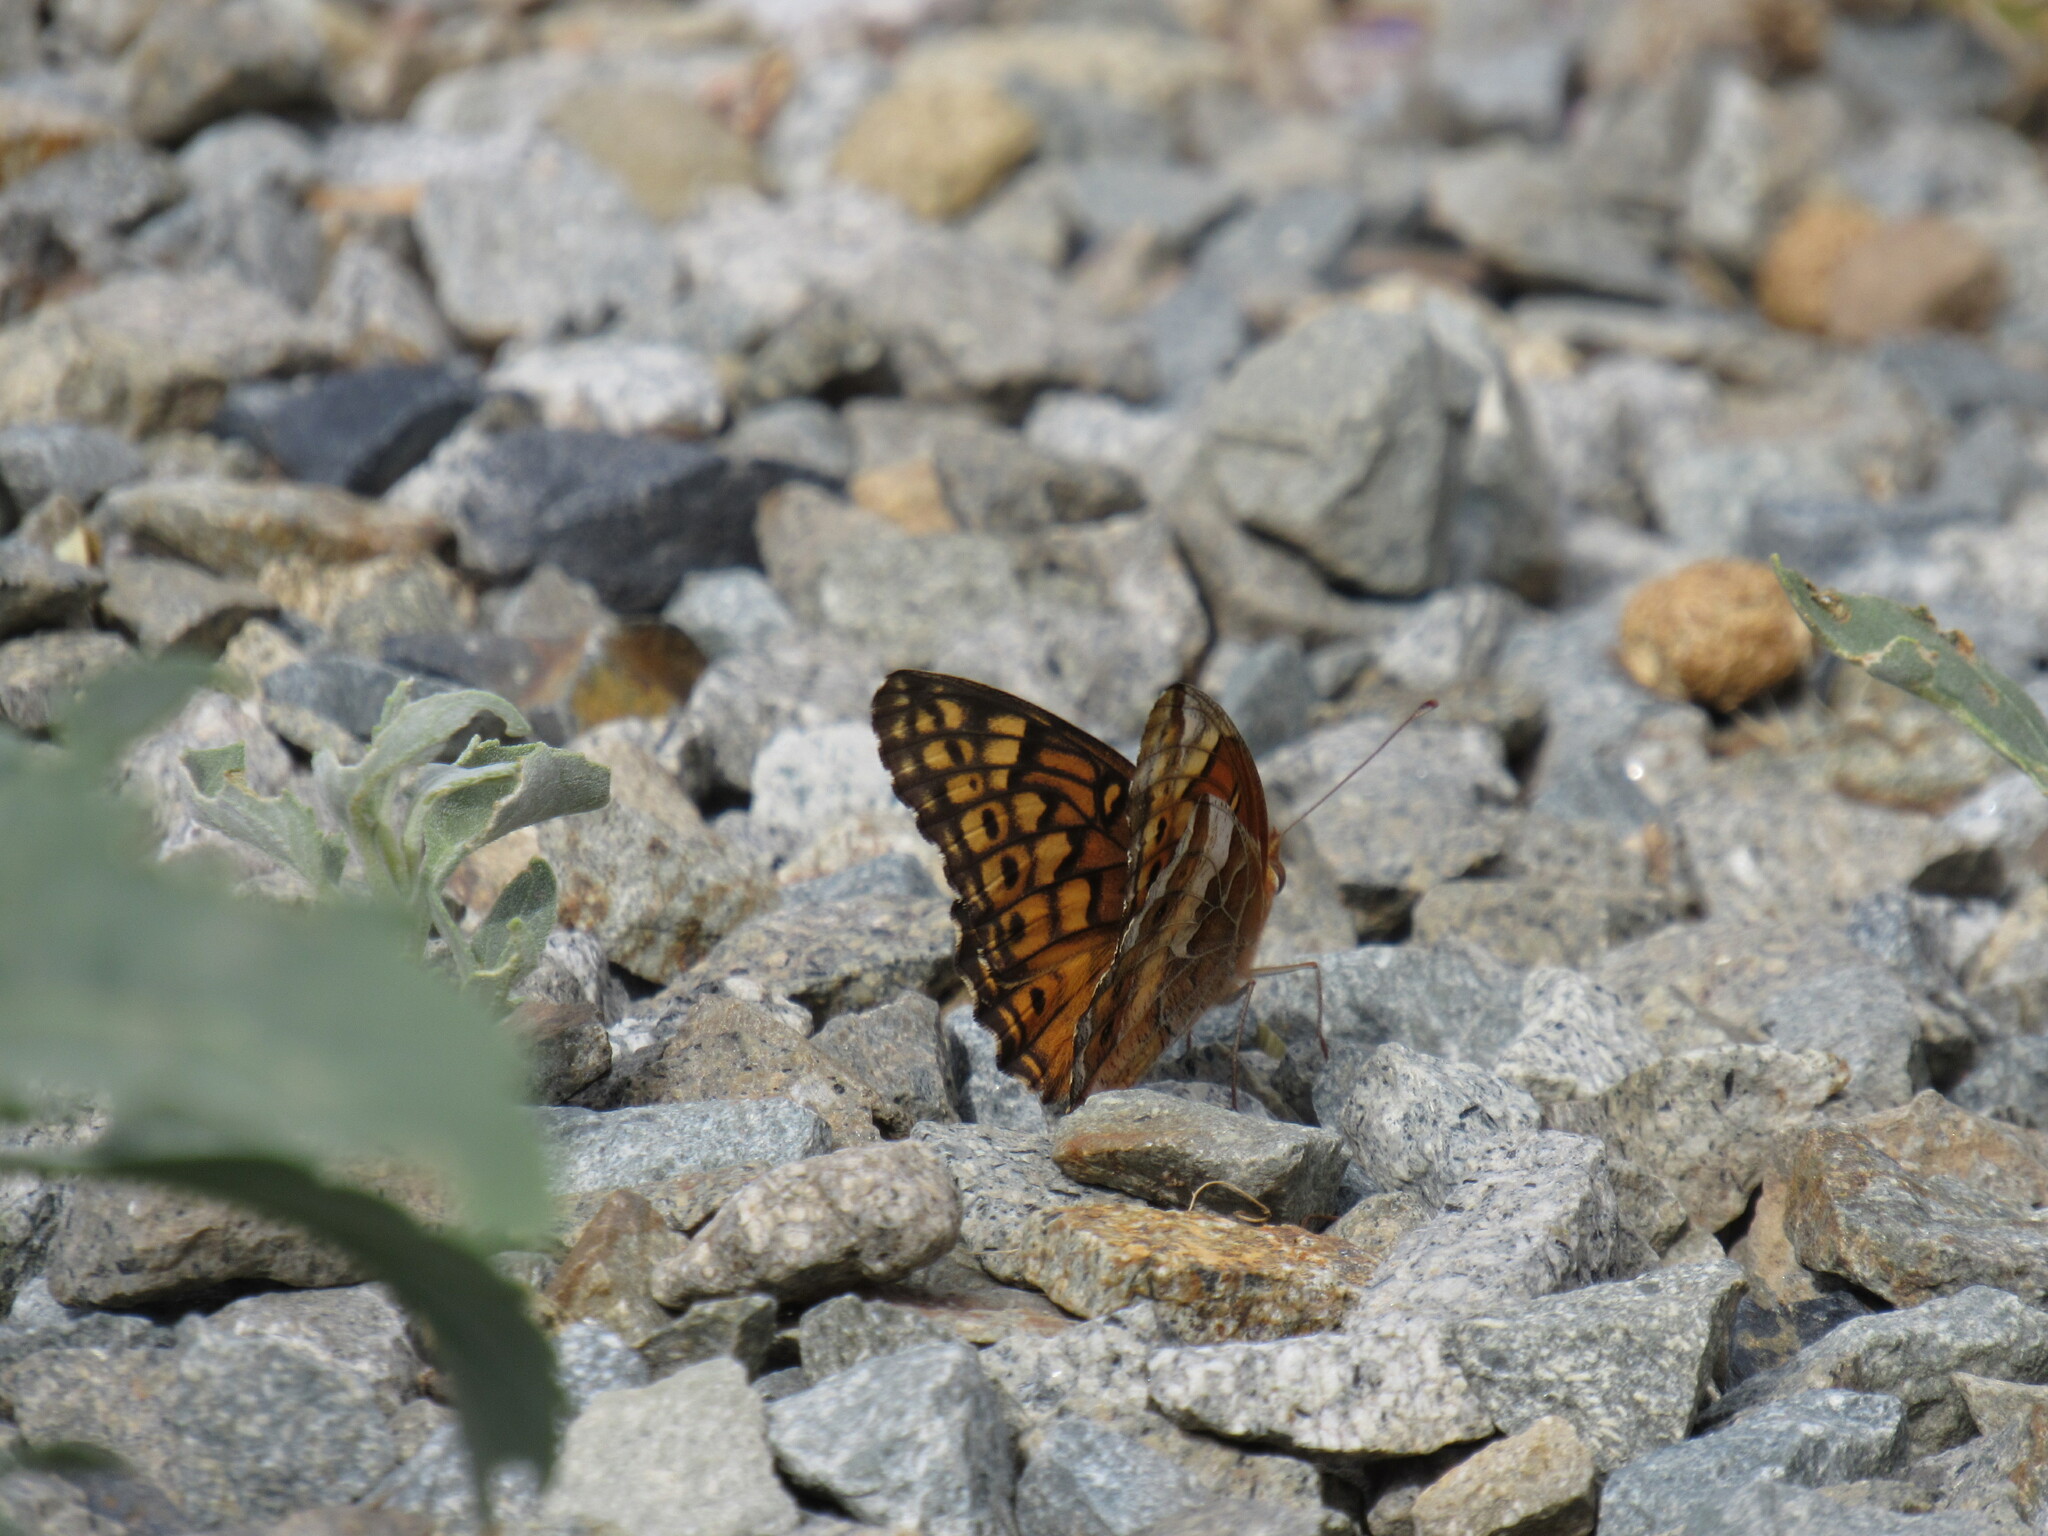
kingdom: Animalia
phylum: Arthropoda
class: Insecta
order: Lepidoptera
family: Nymphalidae
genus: Euptoieta
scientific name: Euptoieta claudia
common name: Variegated fritillary
